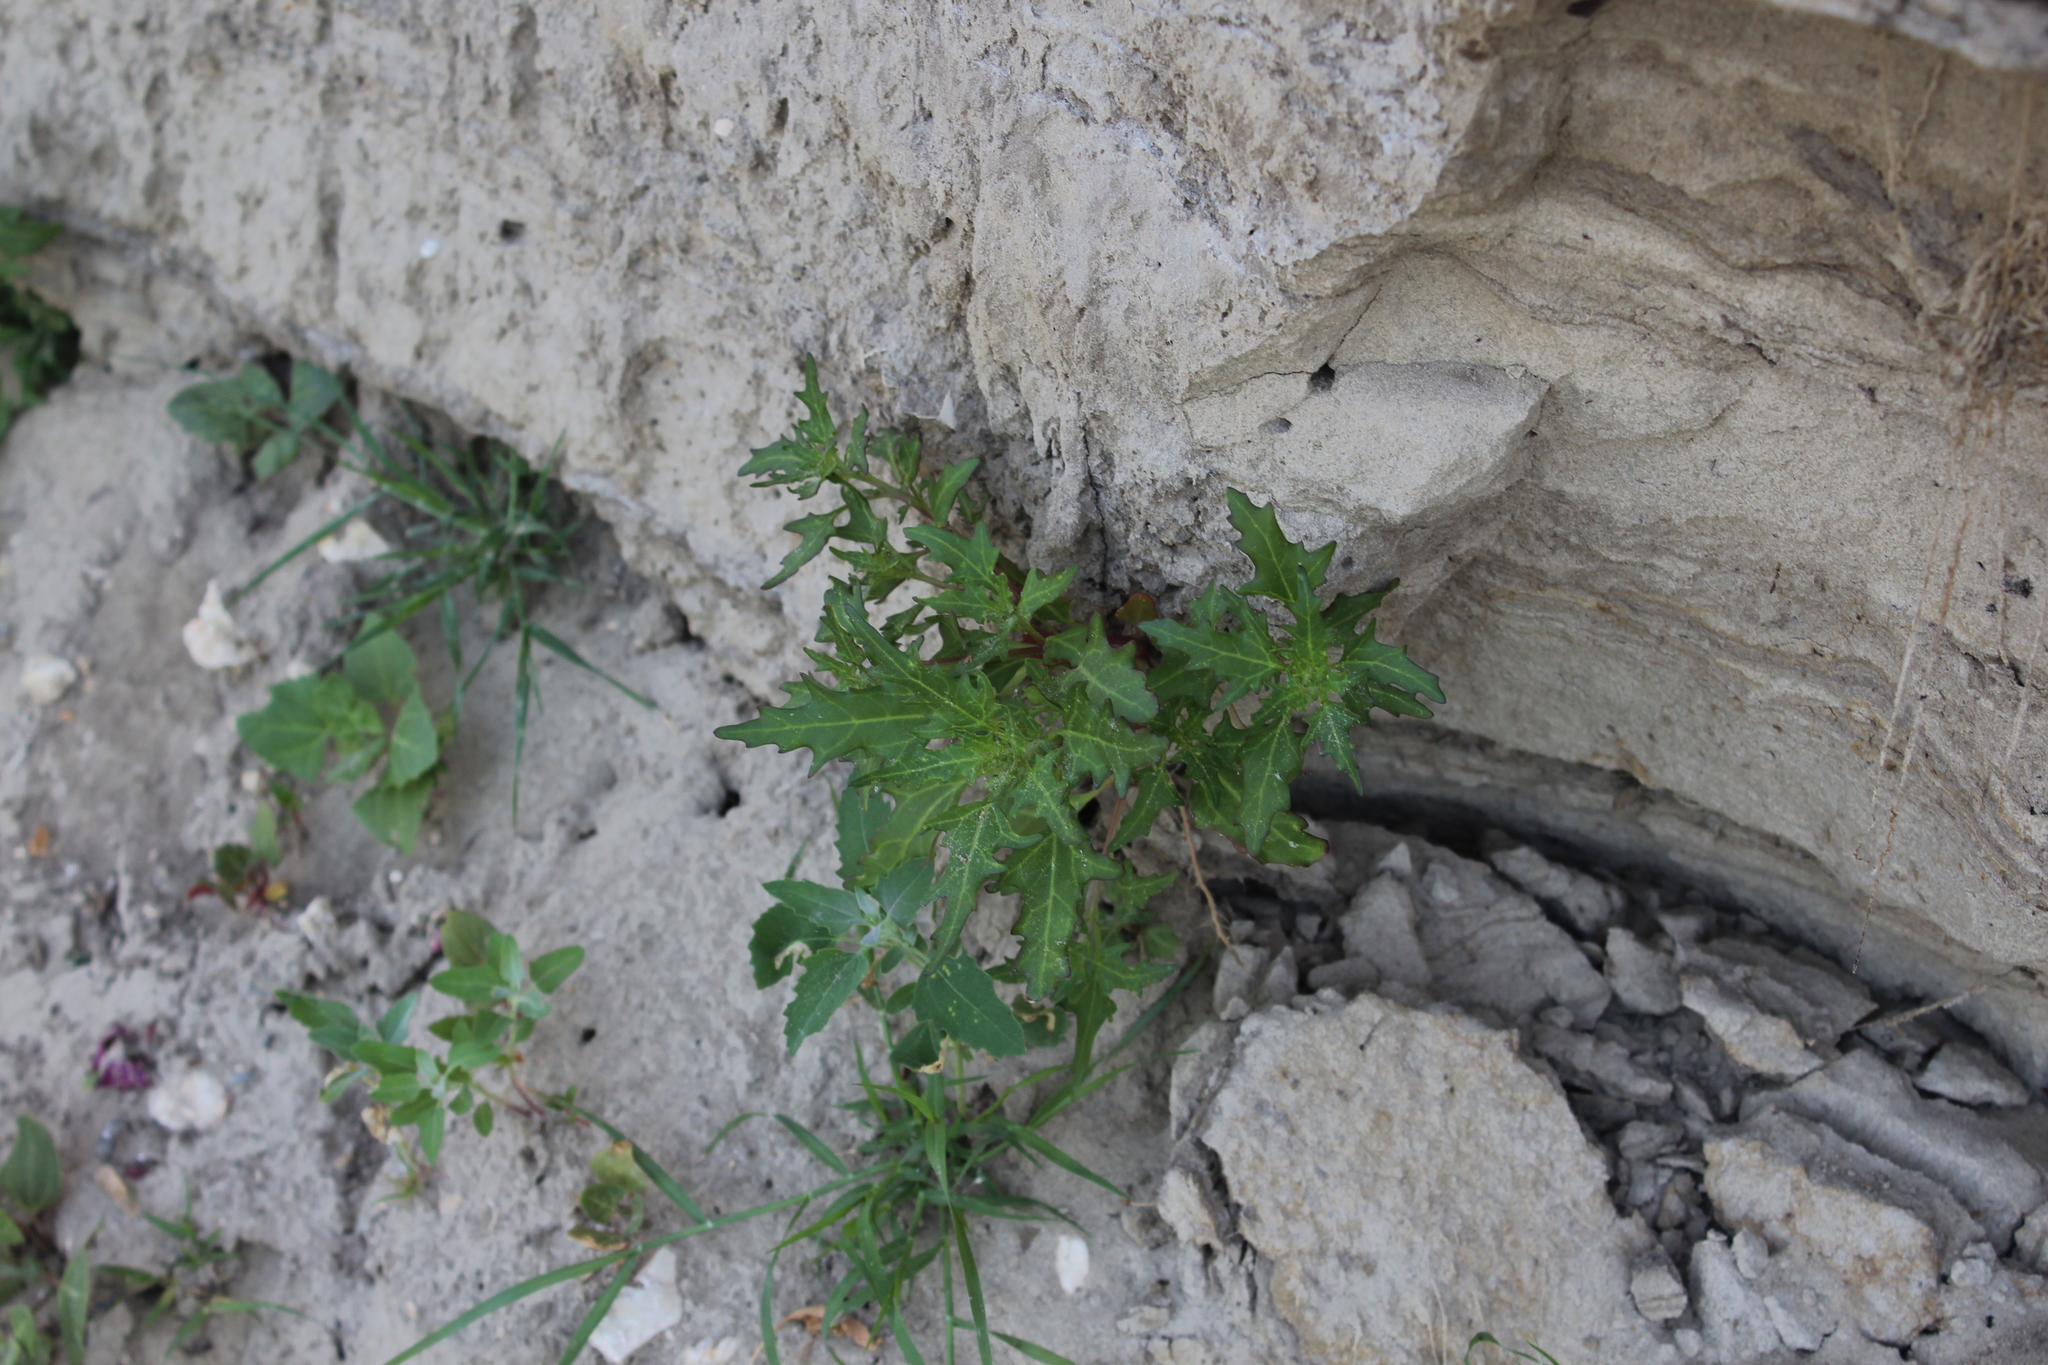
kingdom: Plantae
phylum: Tracheophyta
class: Magnoliopsida
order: Caryophyllales
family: Amaranthaceae
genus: Oxybasis
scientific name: Oxybasis glauca
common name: Glaucous goosefoot
